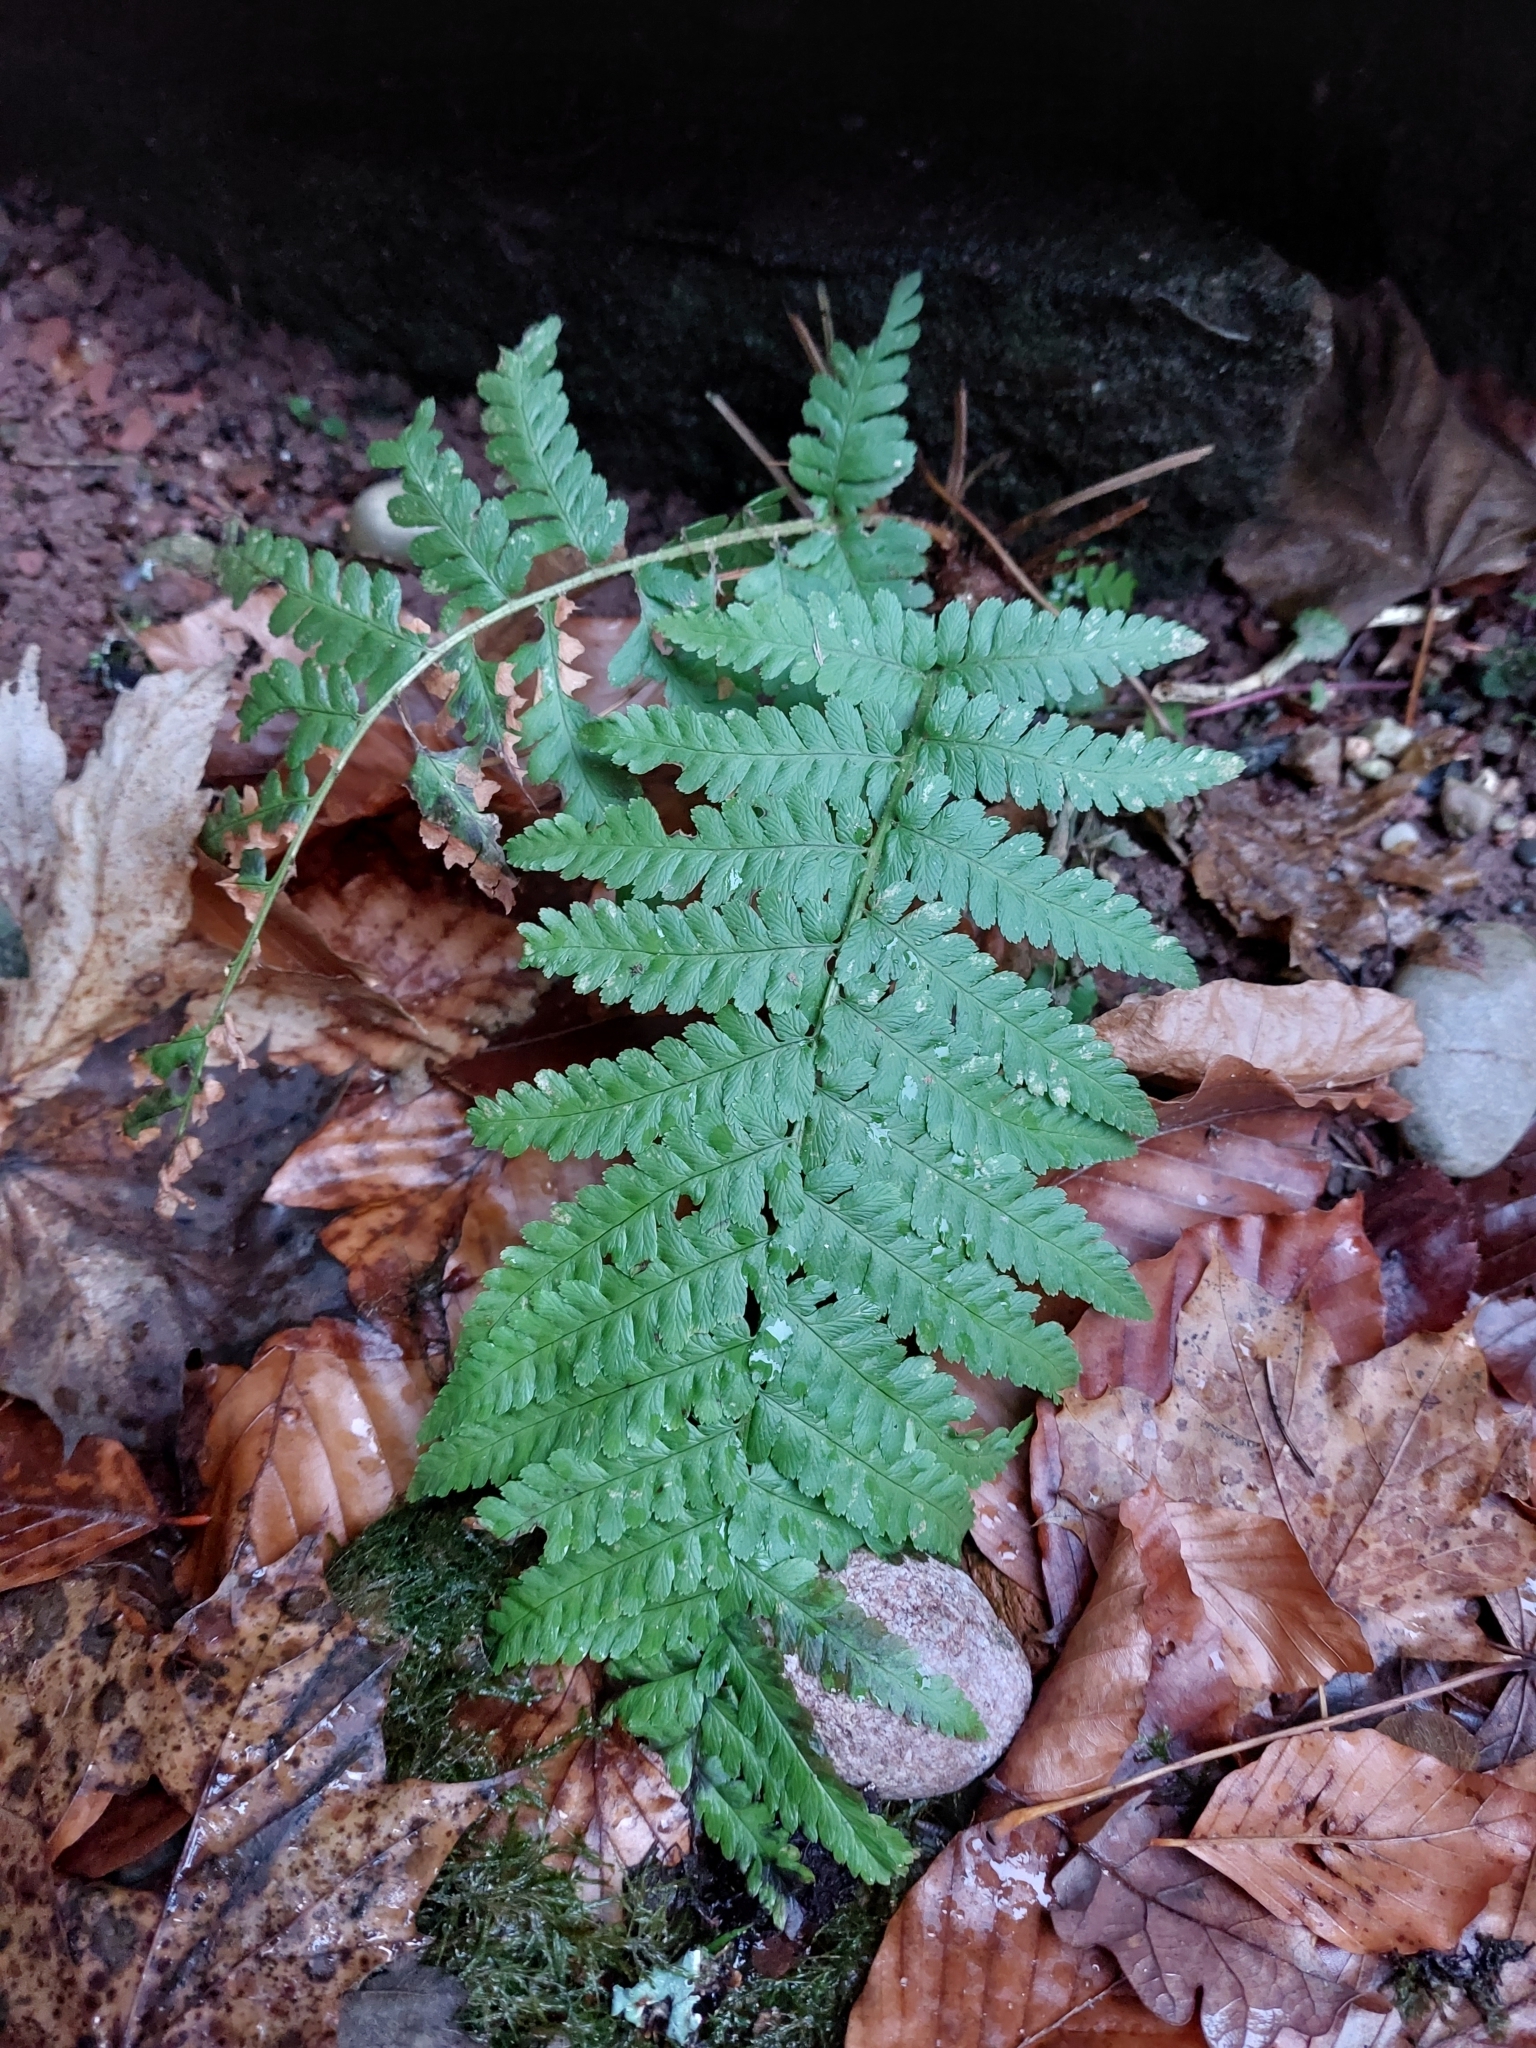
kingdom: Plantae
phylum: Tracheophyta
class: Polypodiopsida
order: Polypodiales
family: Dryopteridaceae
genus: Dryopteris
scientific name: Dryopteris filix-mas
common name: Male fern
